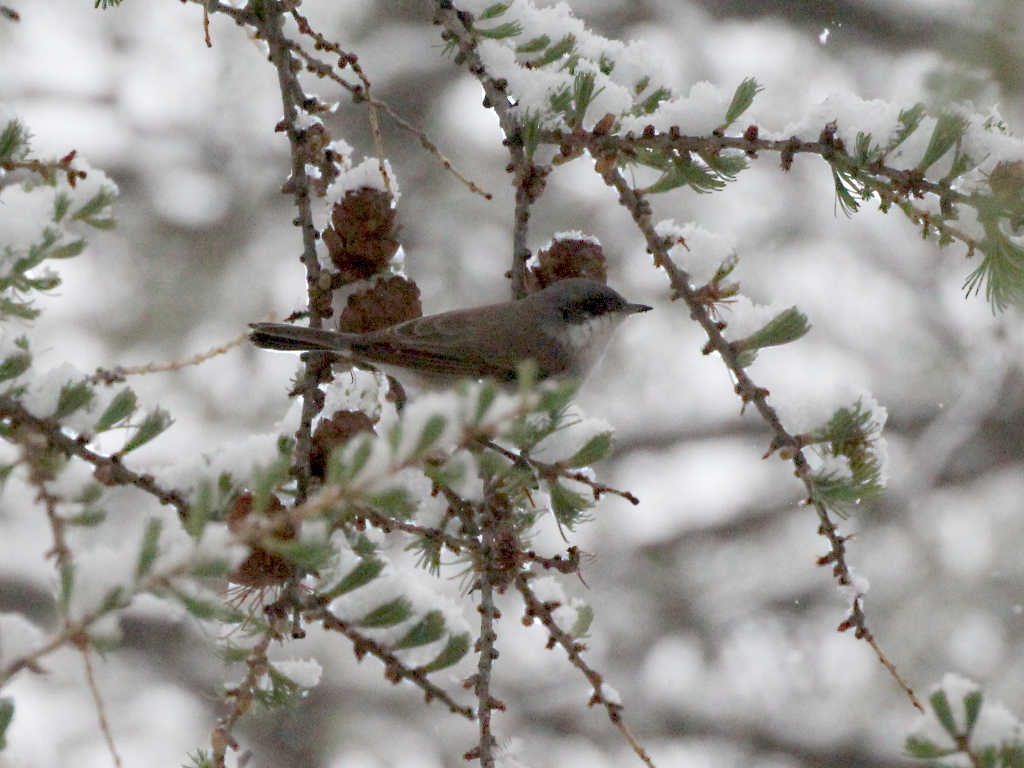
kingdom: Animalia
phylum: Chordata
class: Aves
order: Passeriformes
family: Sylviidae
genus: Sylvia
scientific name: Sylvia curruca
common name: Lesser whitethroat
